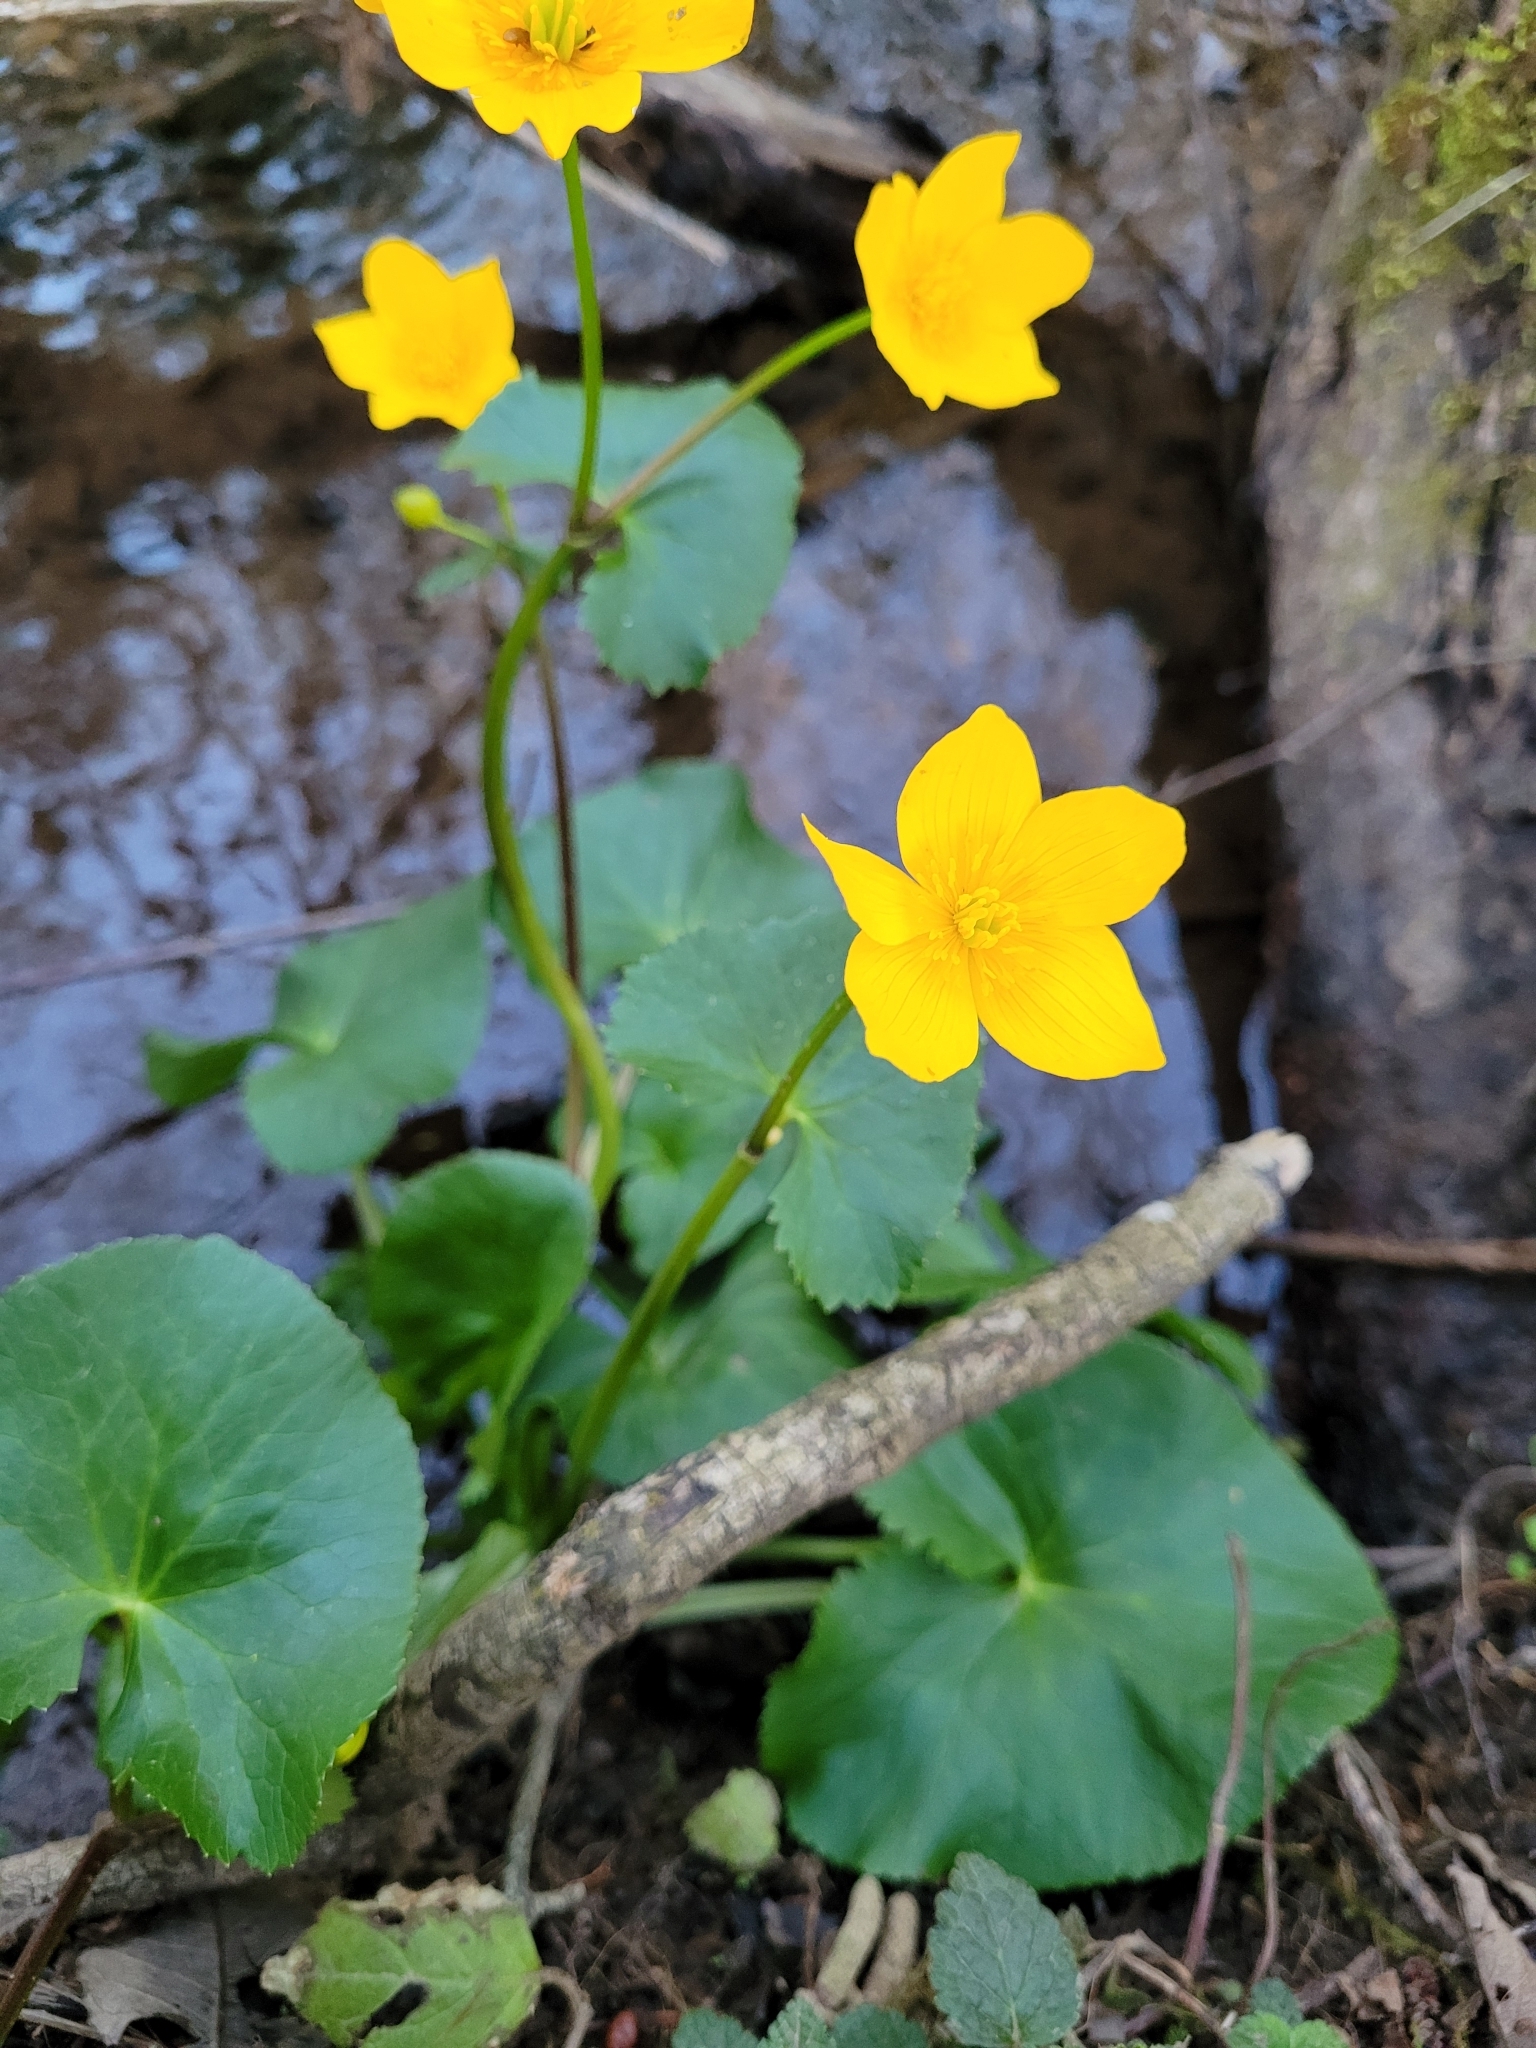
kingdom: Plantae
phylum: Tracheophyta
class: Magnoliopsida
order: Ranunculales
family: Ranunculaceae
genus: Caltha
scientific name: Caltha palustris
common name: Marsh marigold
